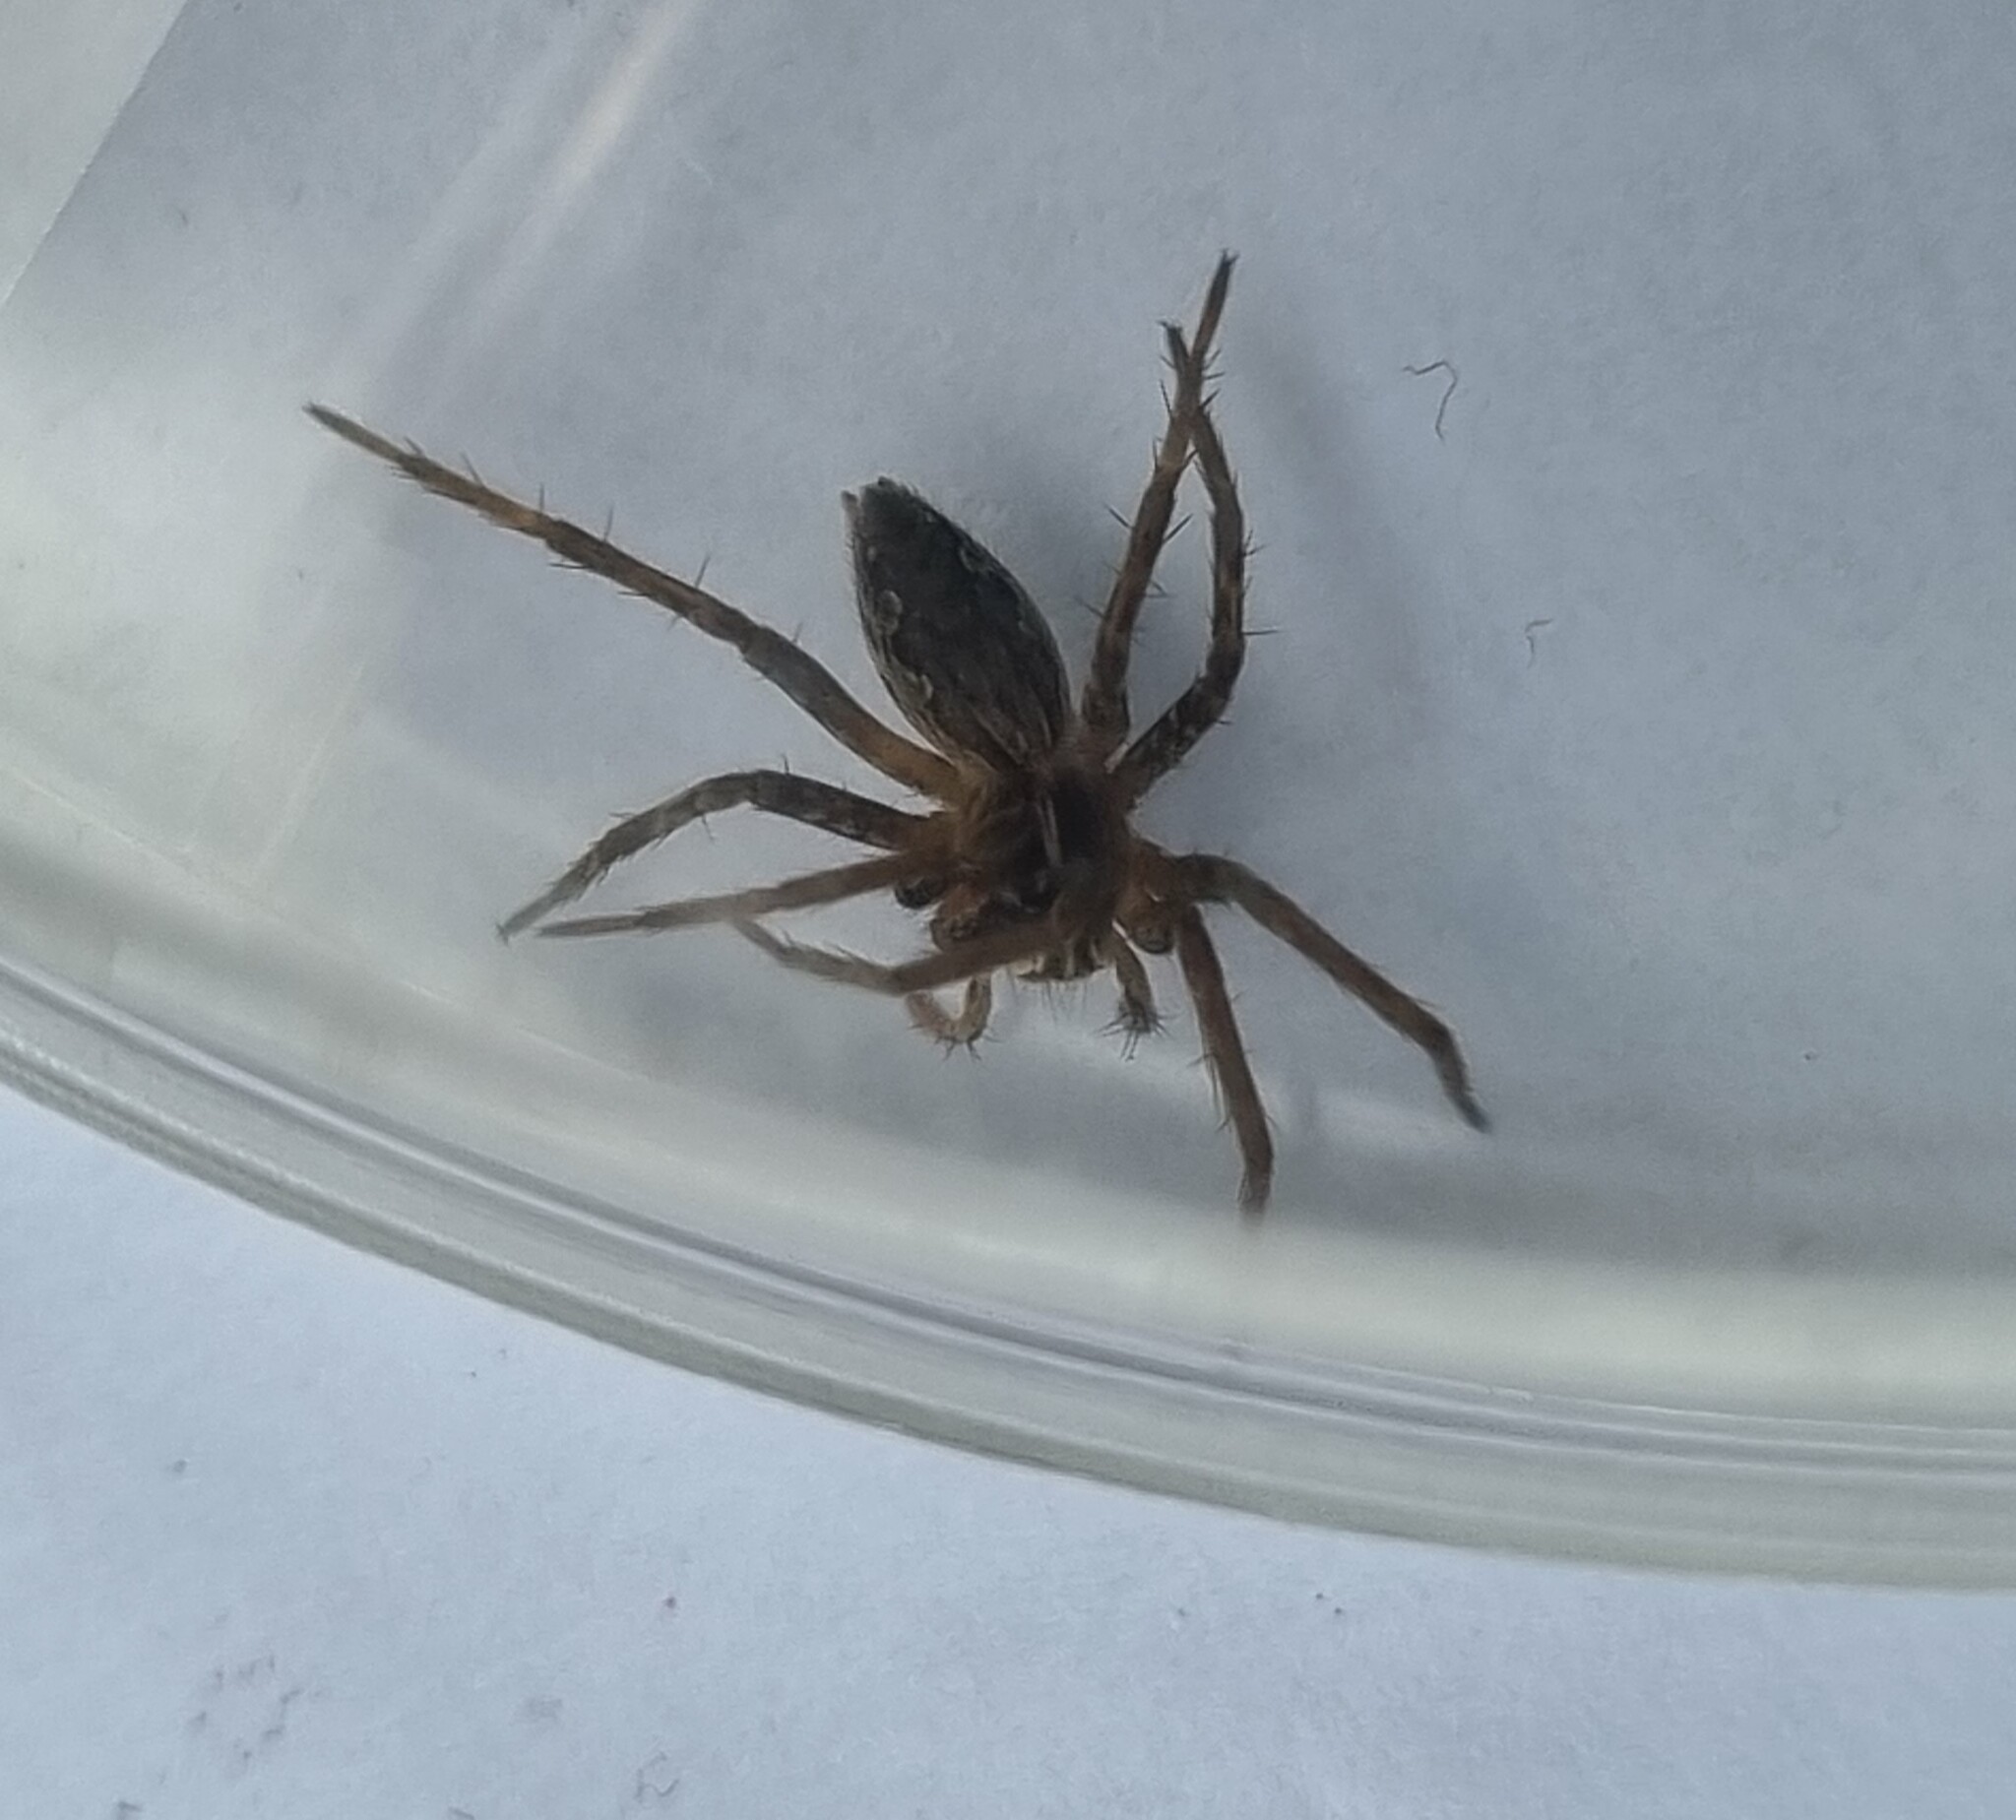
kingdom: Animalia
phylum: Arthropoda
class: Arachnida
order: Araneae
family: Pisauridae
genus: Pisaura
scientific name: Pisaura mirabilis
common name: Tent spider
